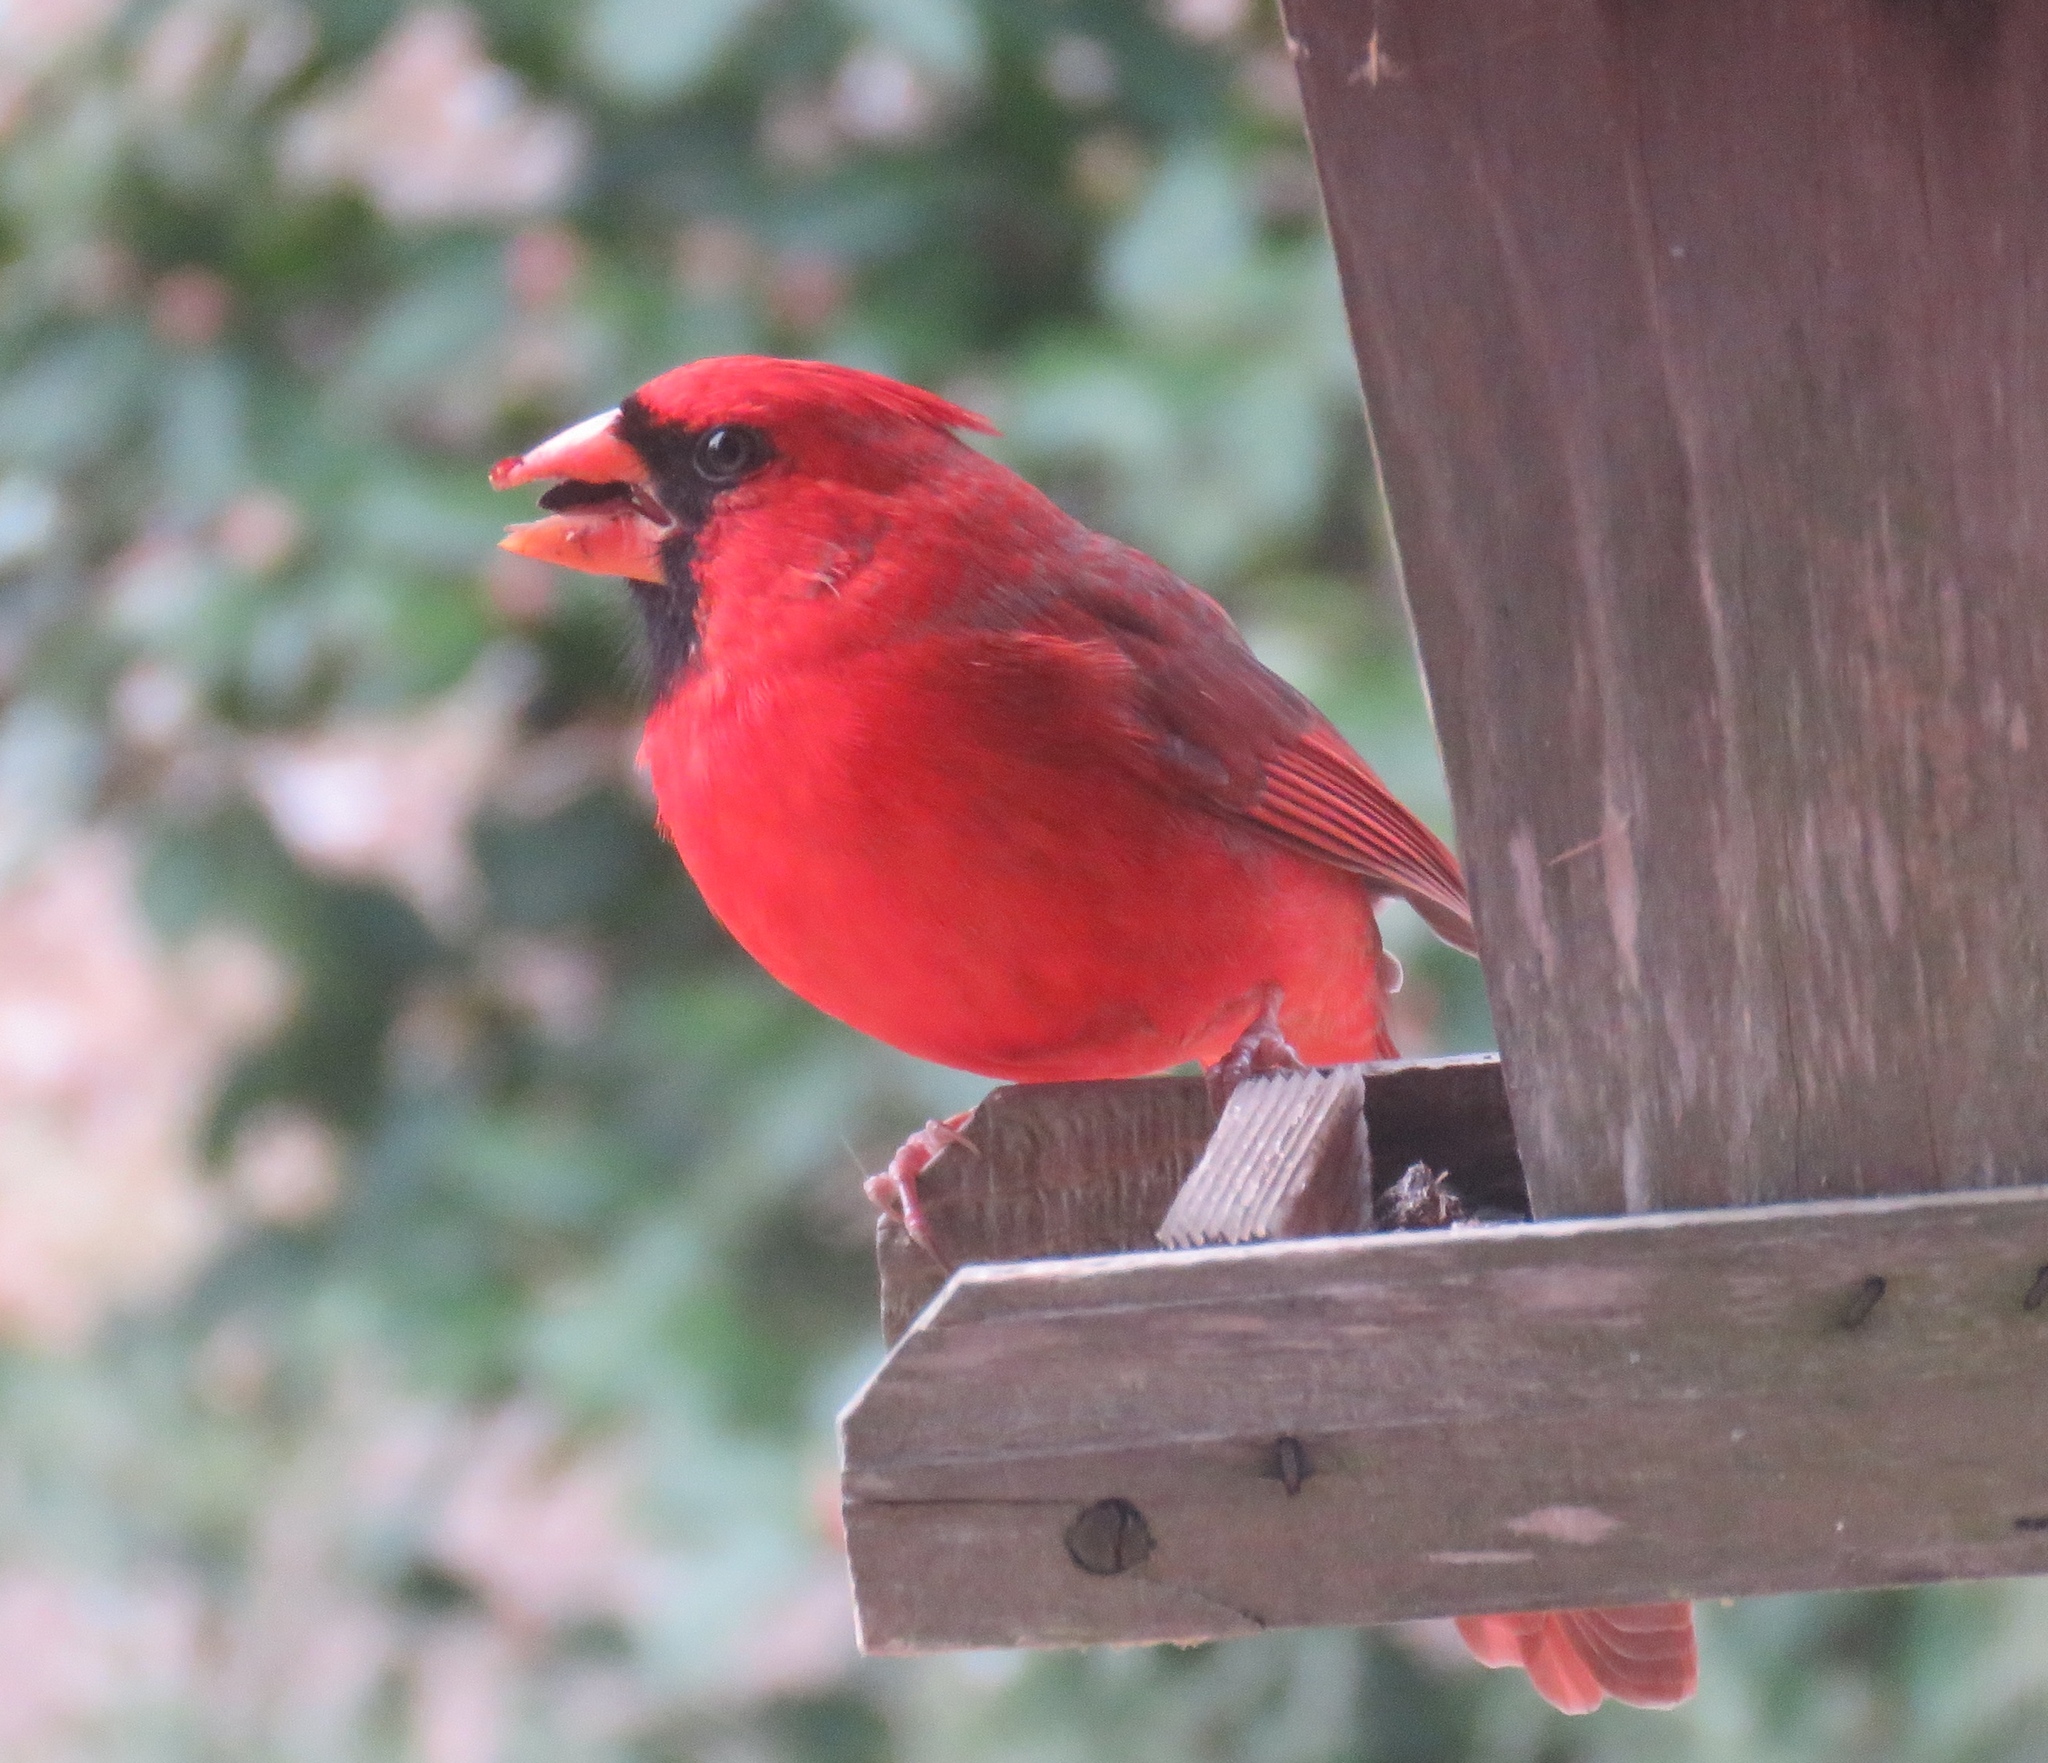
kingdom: Animalia
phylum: Chordata
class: Aves
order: Passeriformes
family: Cardinalidae
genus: Cardinalis
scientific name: Cardinalis cardinalis
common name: Northern cardinal
